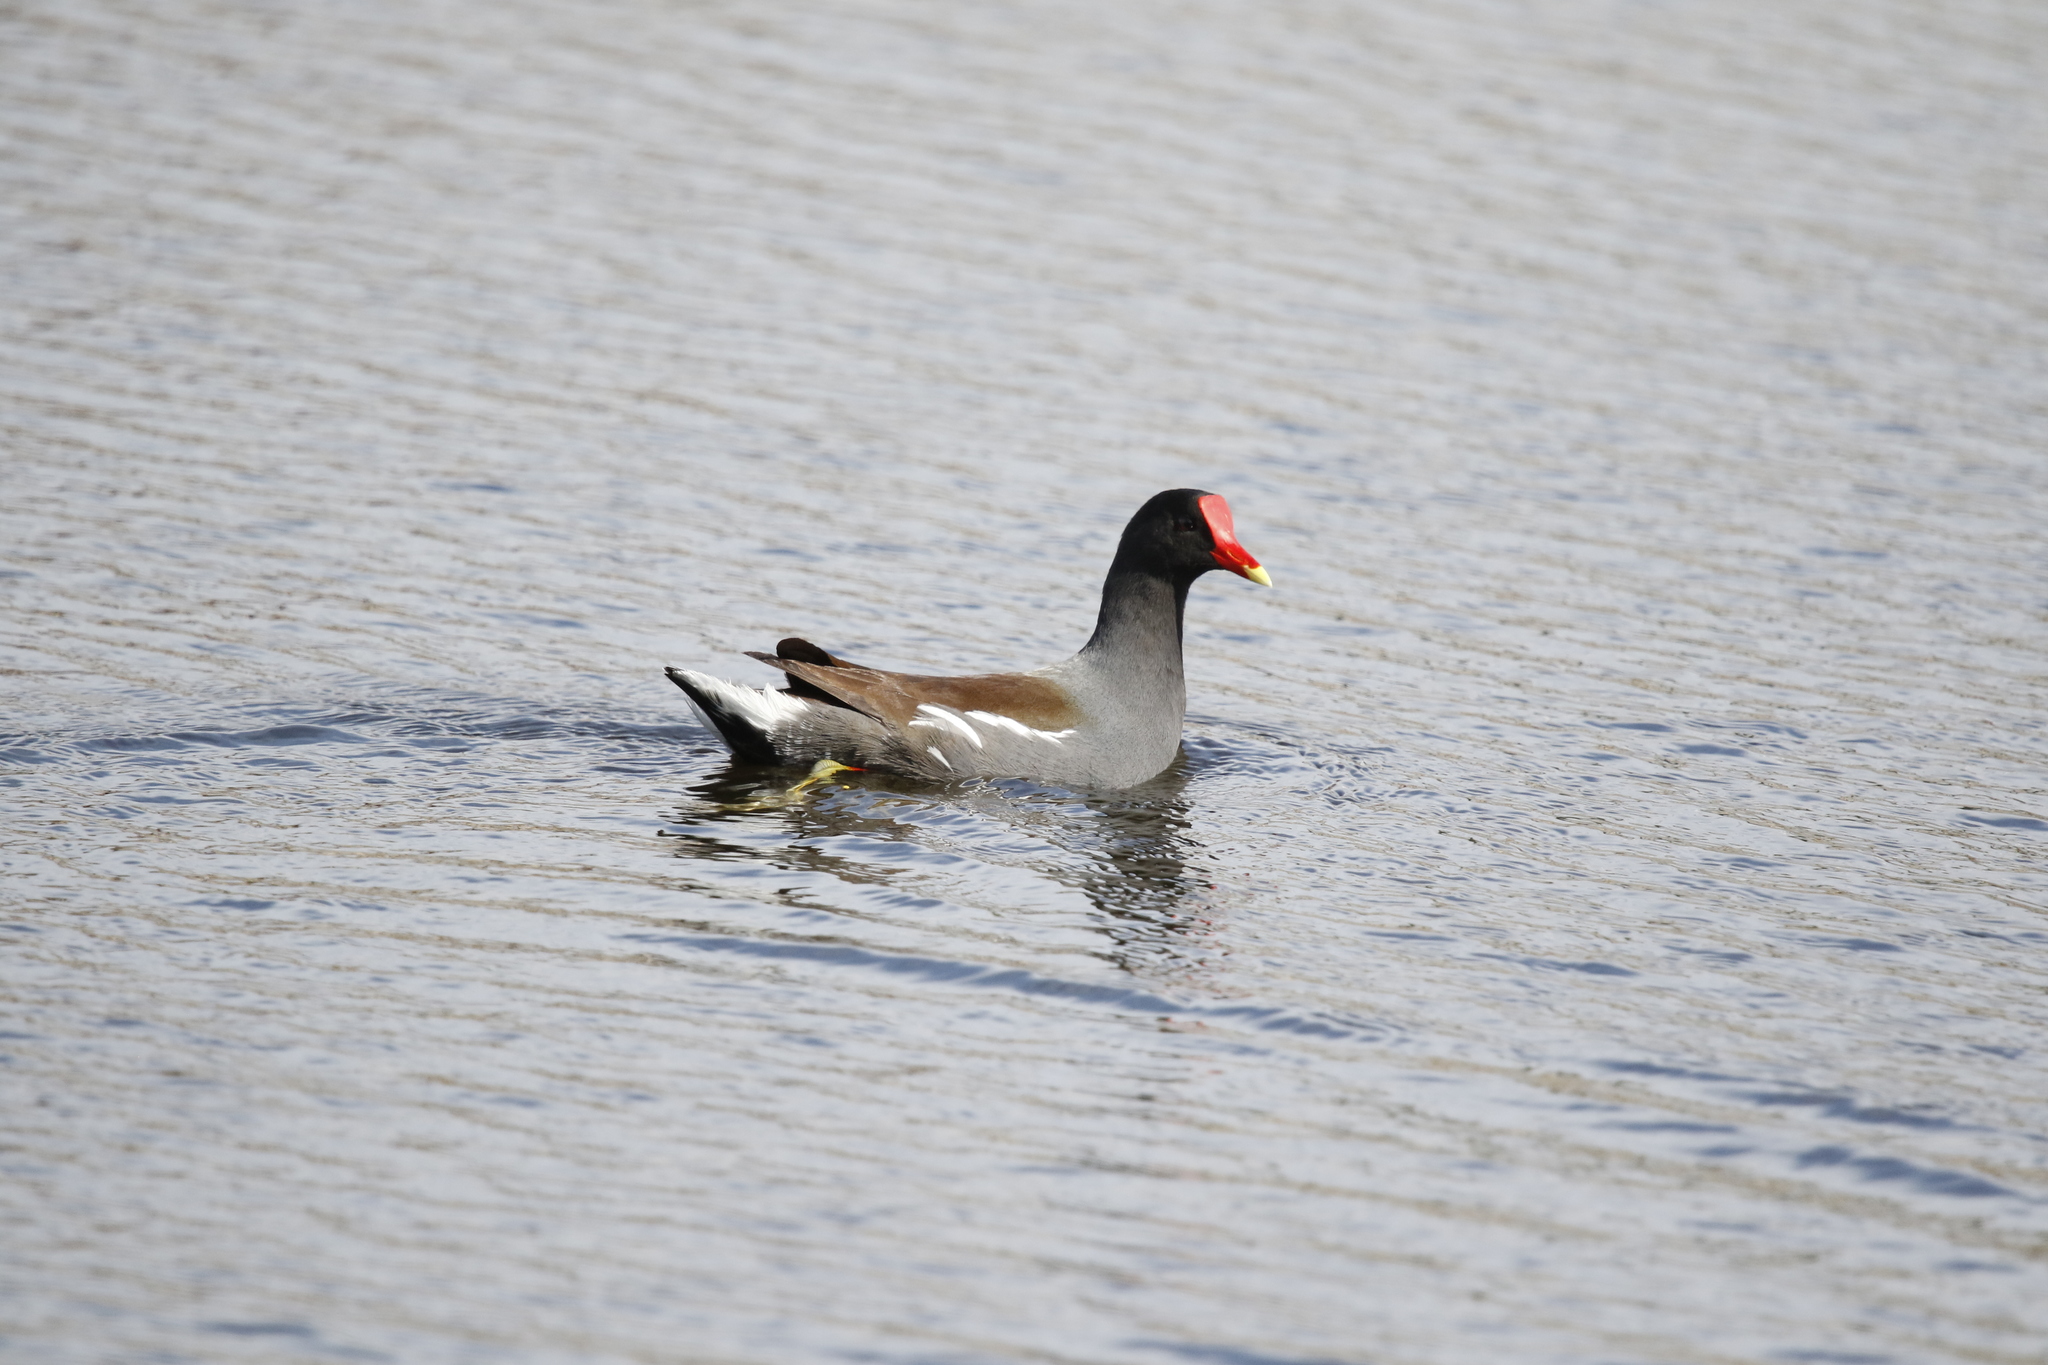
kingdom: Animalia
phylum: Chordata
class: Aves
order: Gruiformes
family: Rallidae
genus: Gallinula
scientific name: Gallinula chloropus
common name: Common moorhen
